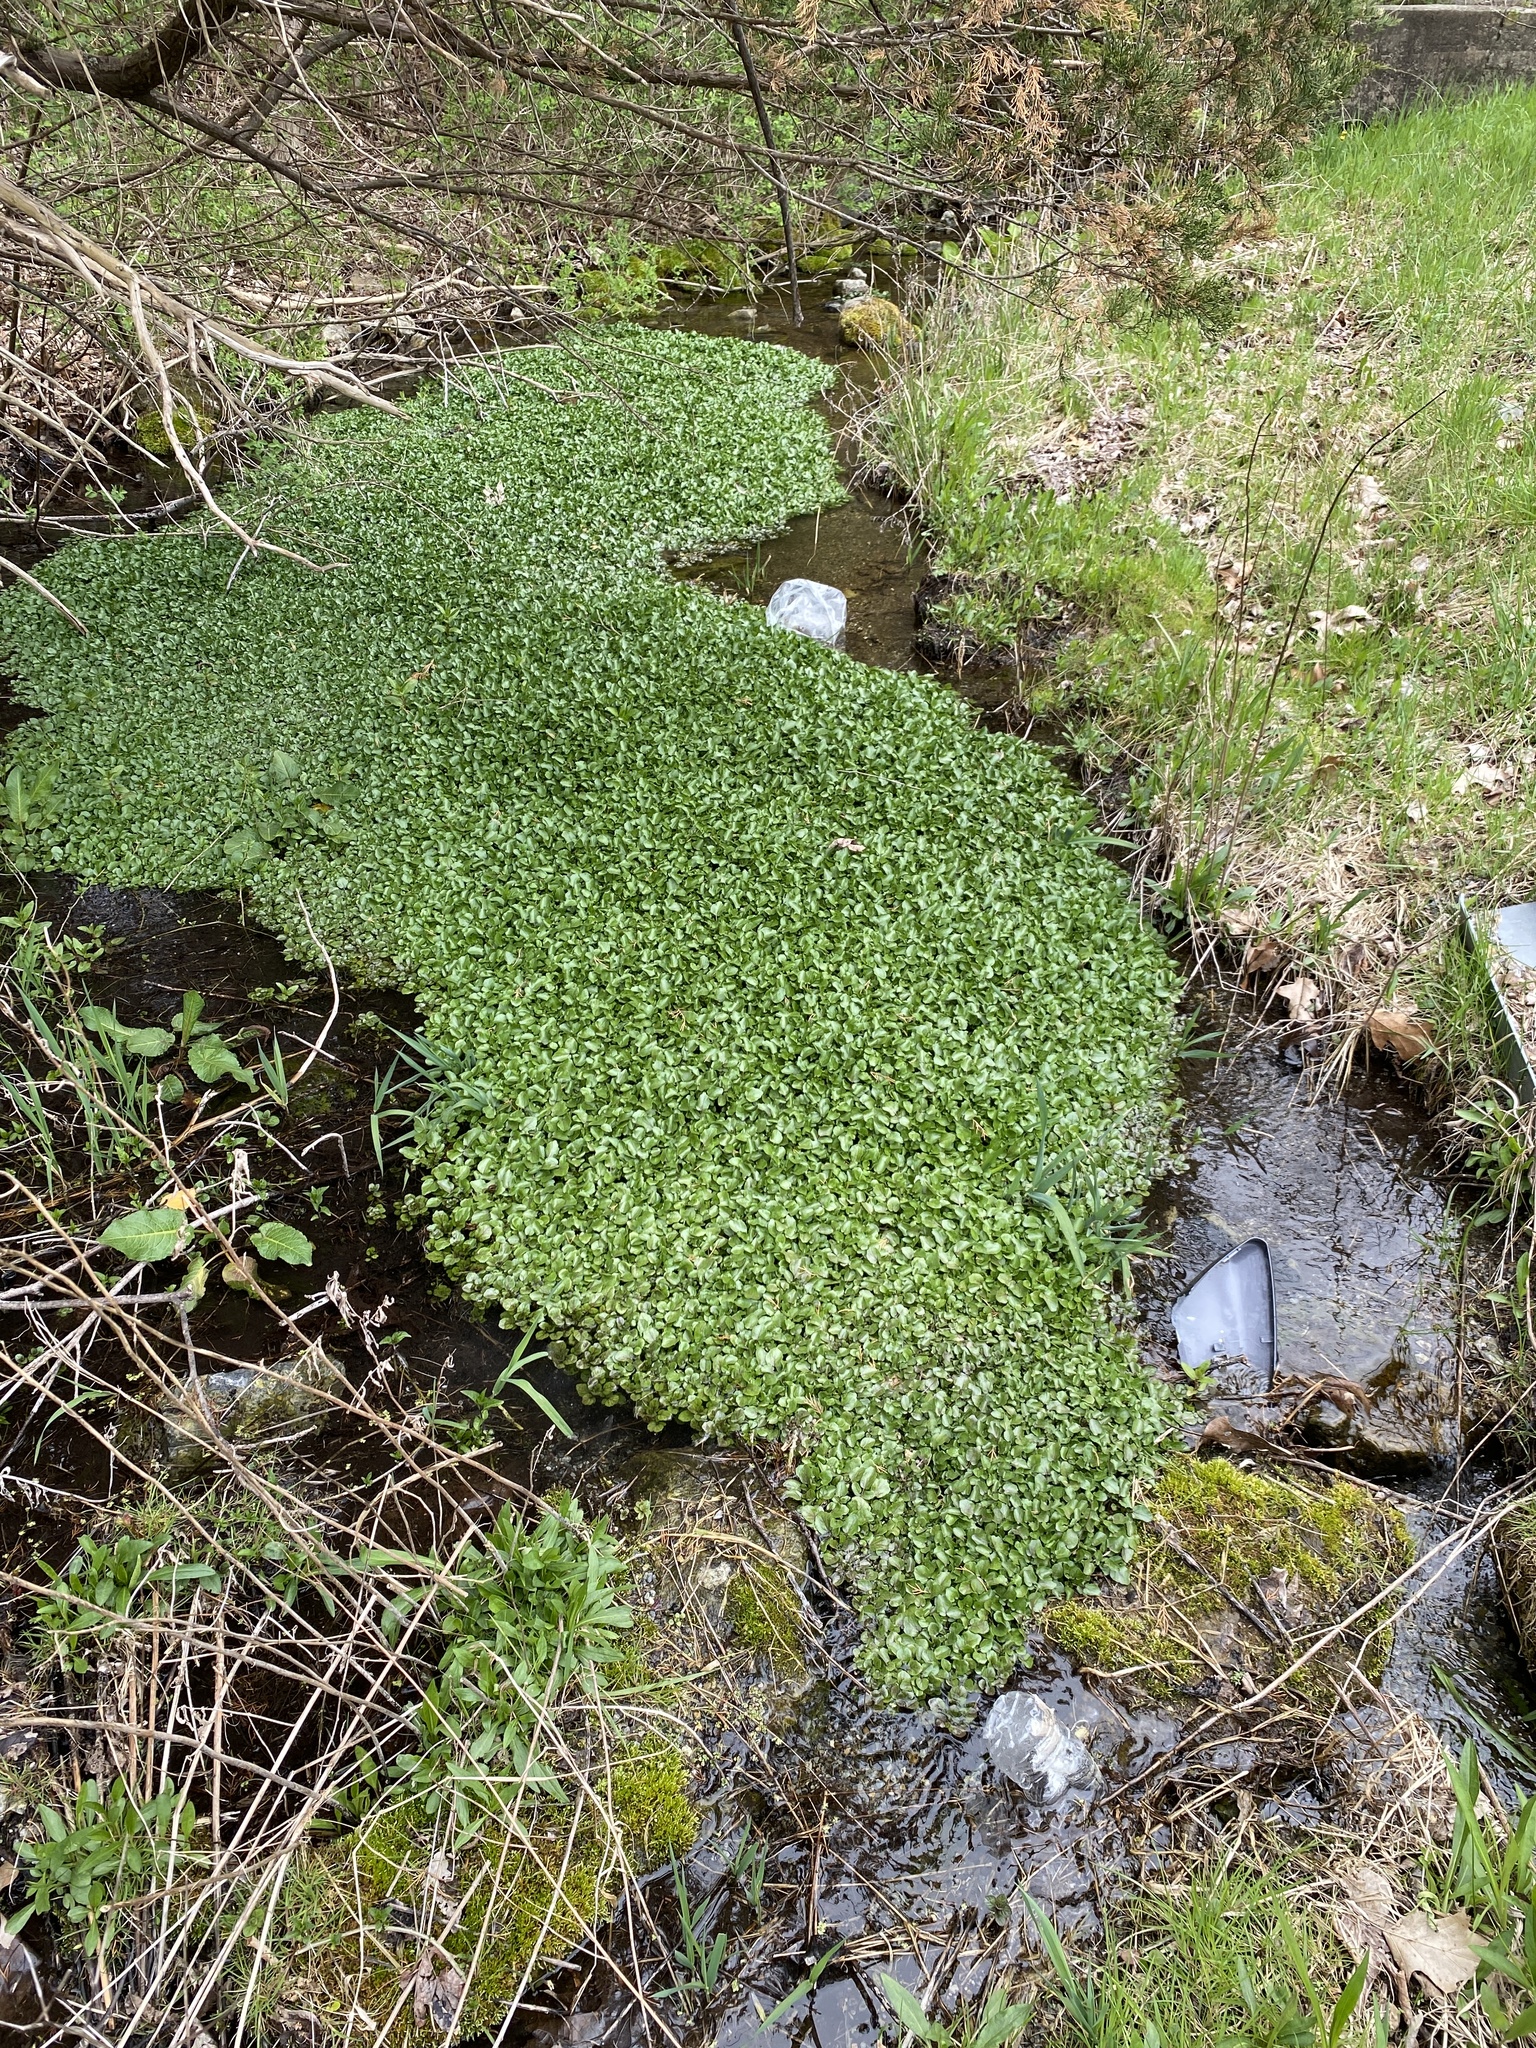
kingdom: Plantae
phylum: Tracheophyta
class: Magnoliopsida
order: Brassicales
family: Brassicaceae
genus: Nasturtium
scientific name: Nasturtium officinale
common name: Watercress
